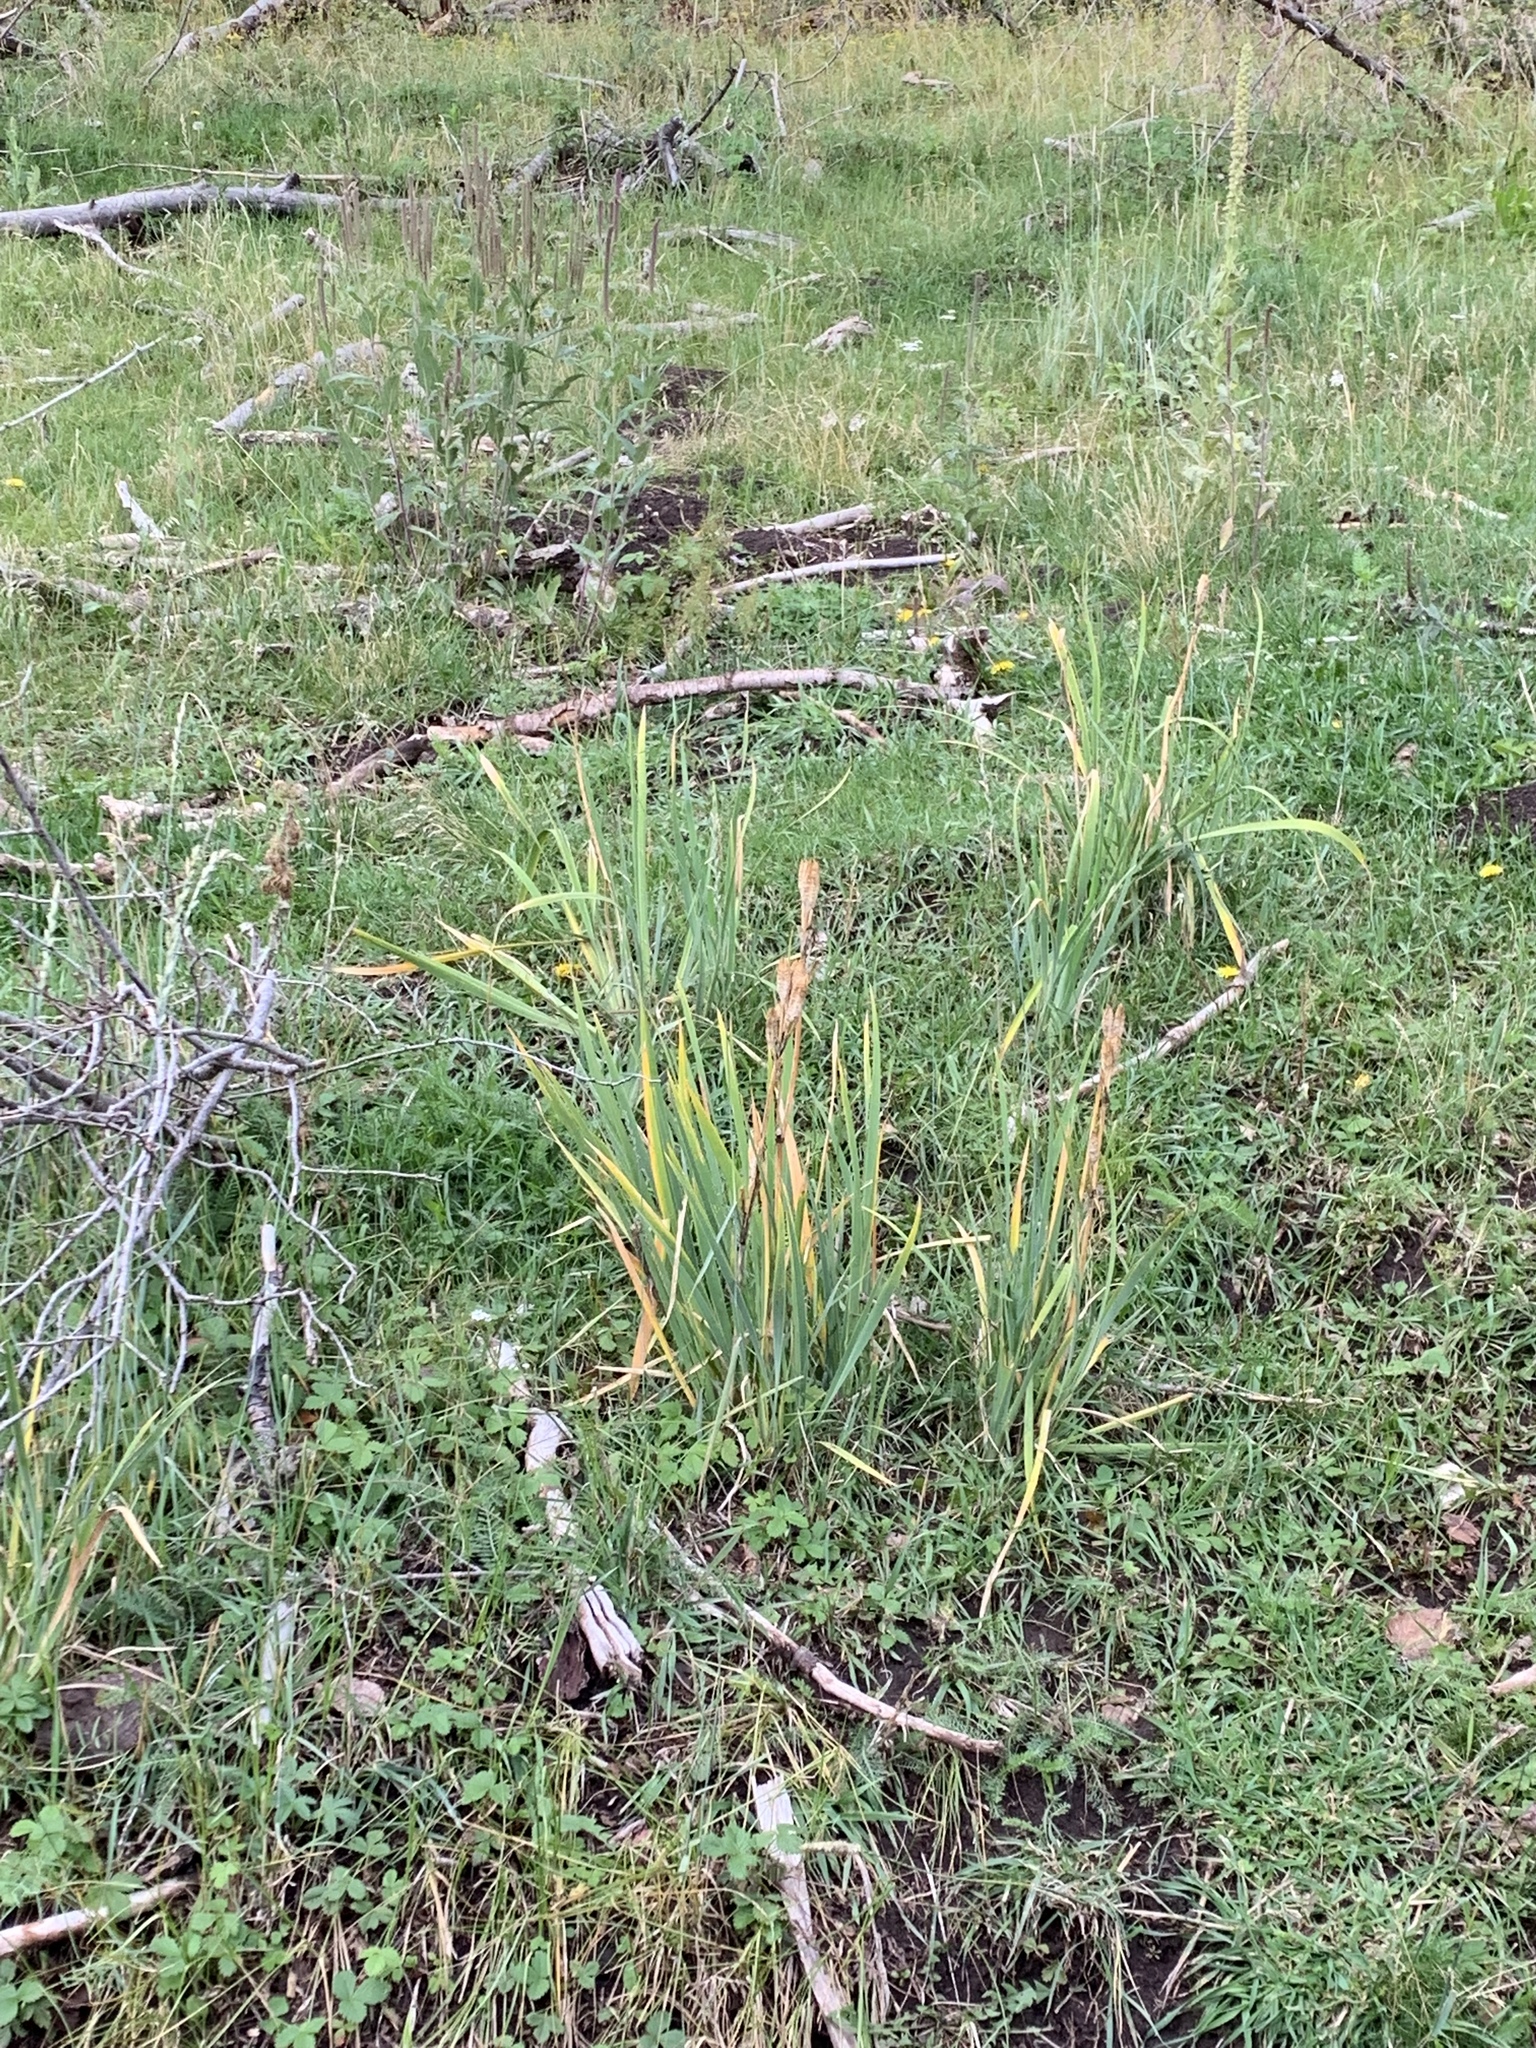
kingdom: Plantae
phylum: Tracheophyta
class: Liliopsida
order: Asparagales
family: Iridaceae
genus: Iris
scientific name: Iris missouriensis
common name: Rocky mountain iris
